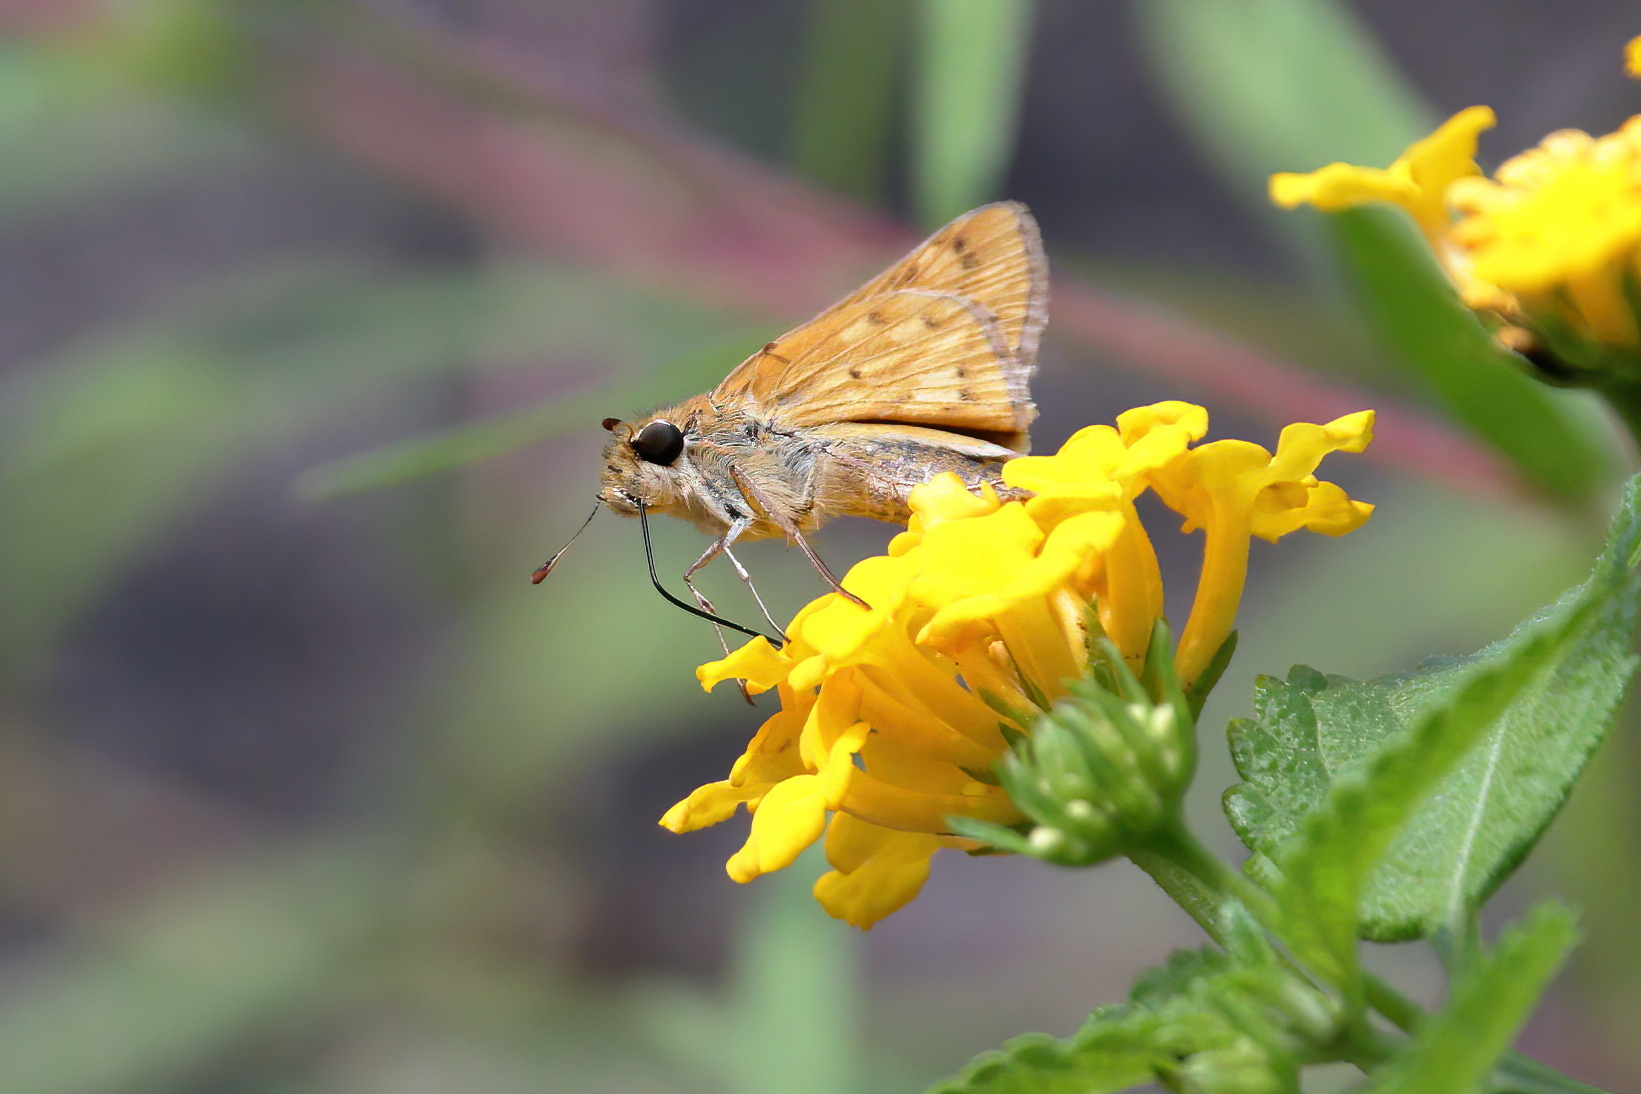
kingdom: Animalia
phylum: Arthropoda
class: Insecta
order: Lepidoptera
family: Hesperiidae
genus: Hylephila
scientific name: Hylephila phyleus
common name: Fiery skipper
